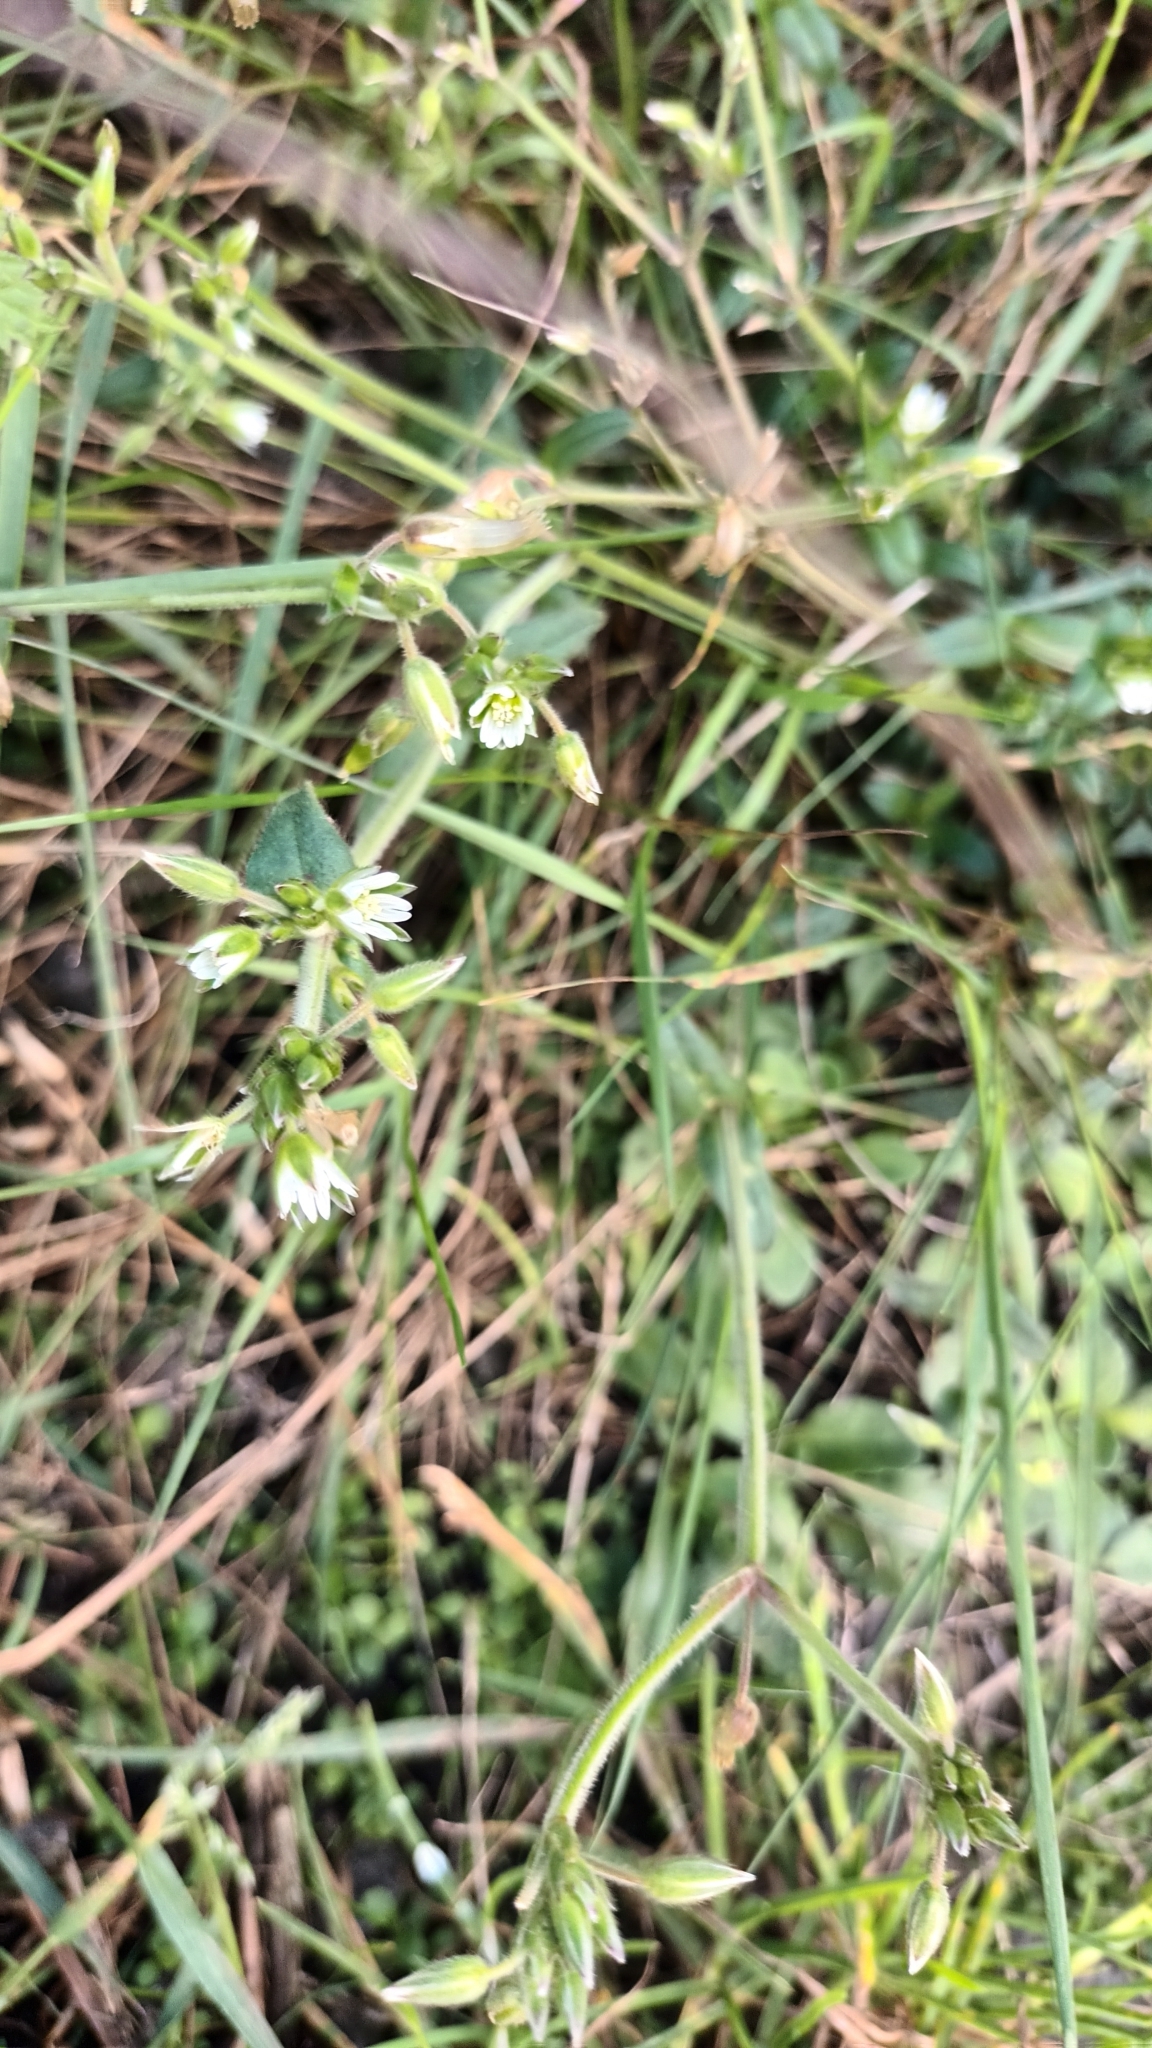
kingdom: Plantae
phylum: Tracheophyta
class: Magnoliopsida
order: Caryophyllales
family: Caryophyllaceae
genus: Cerastium
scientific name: Cerastium fontanum
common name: Common mouse-ear
